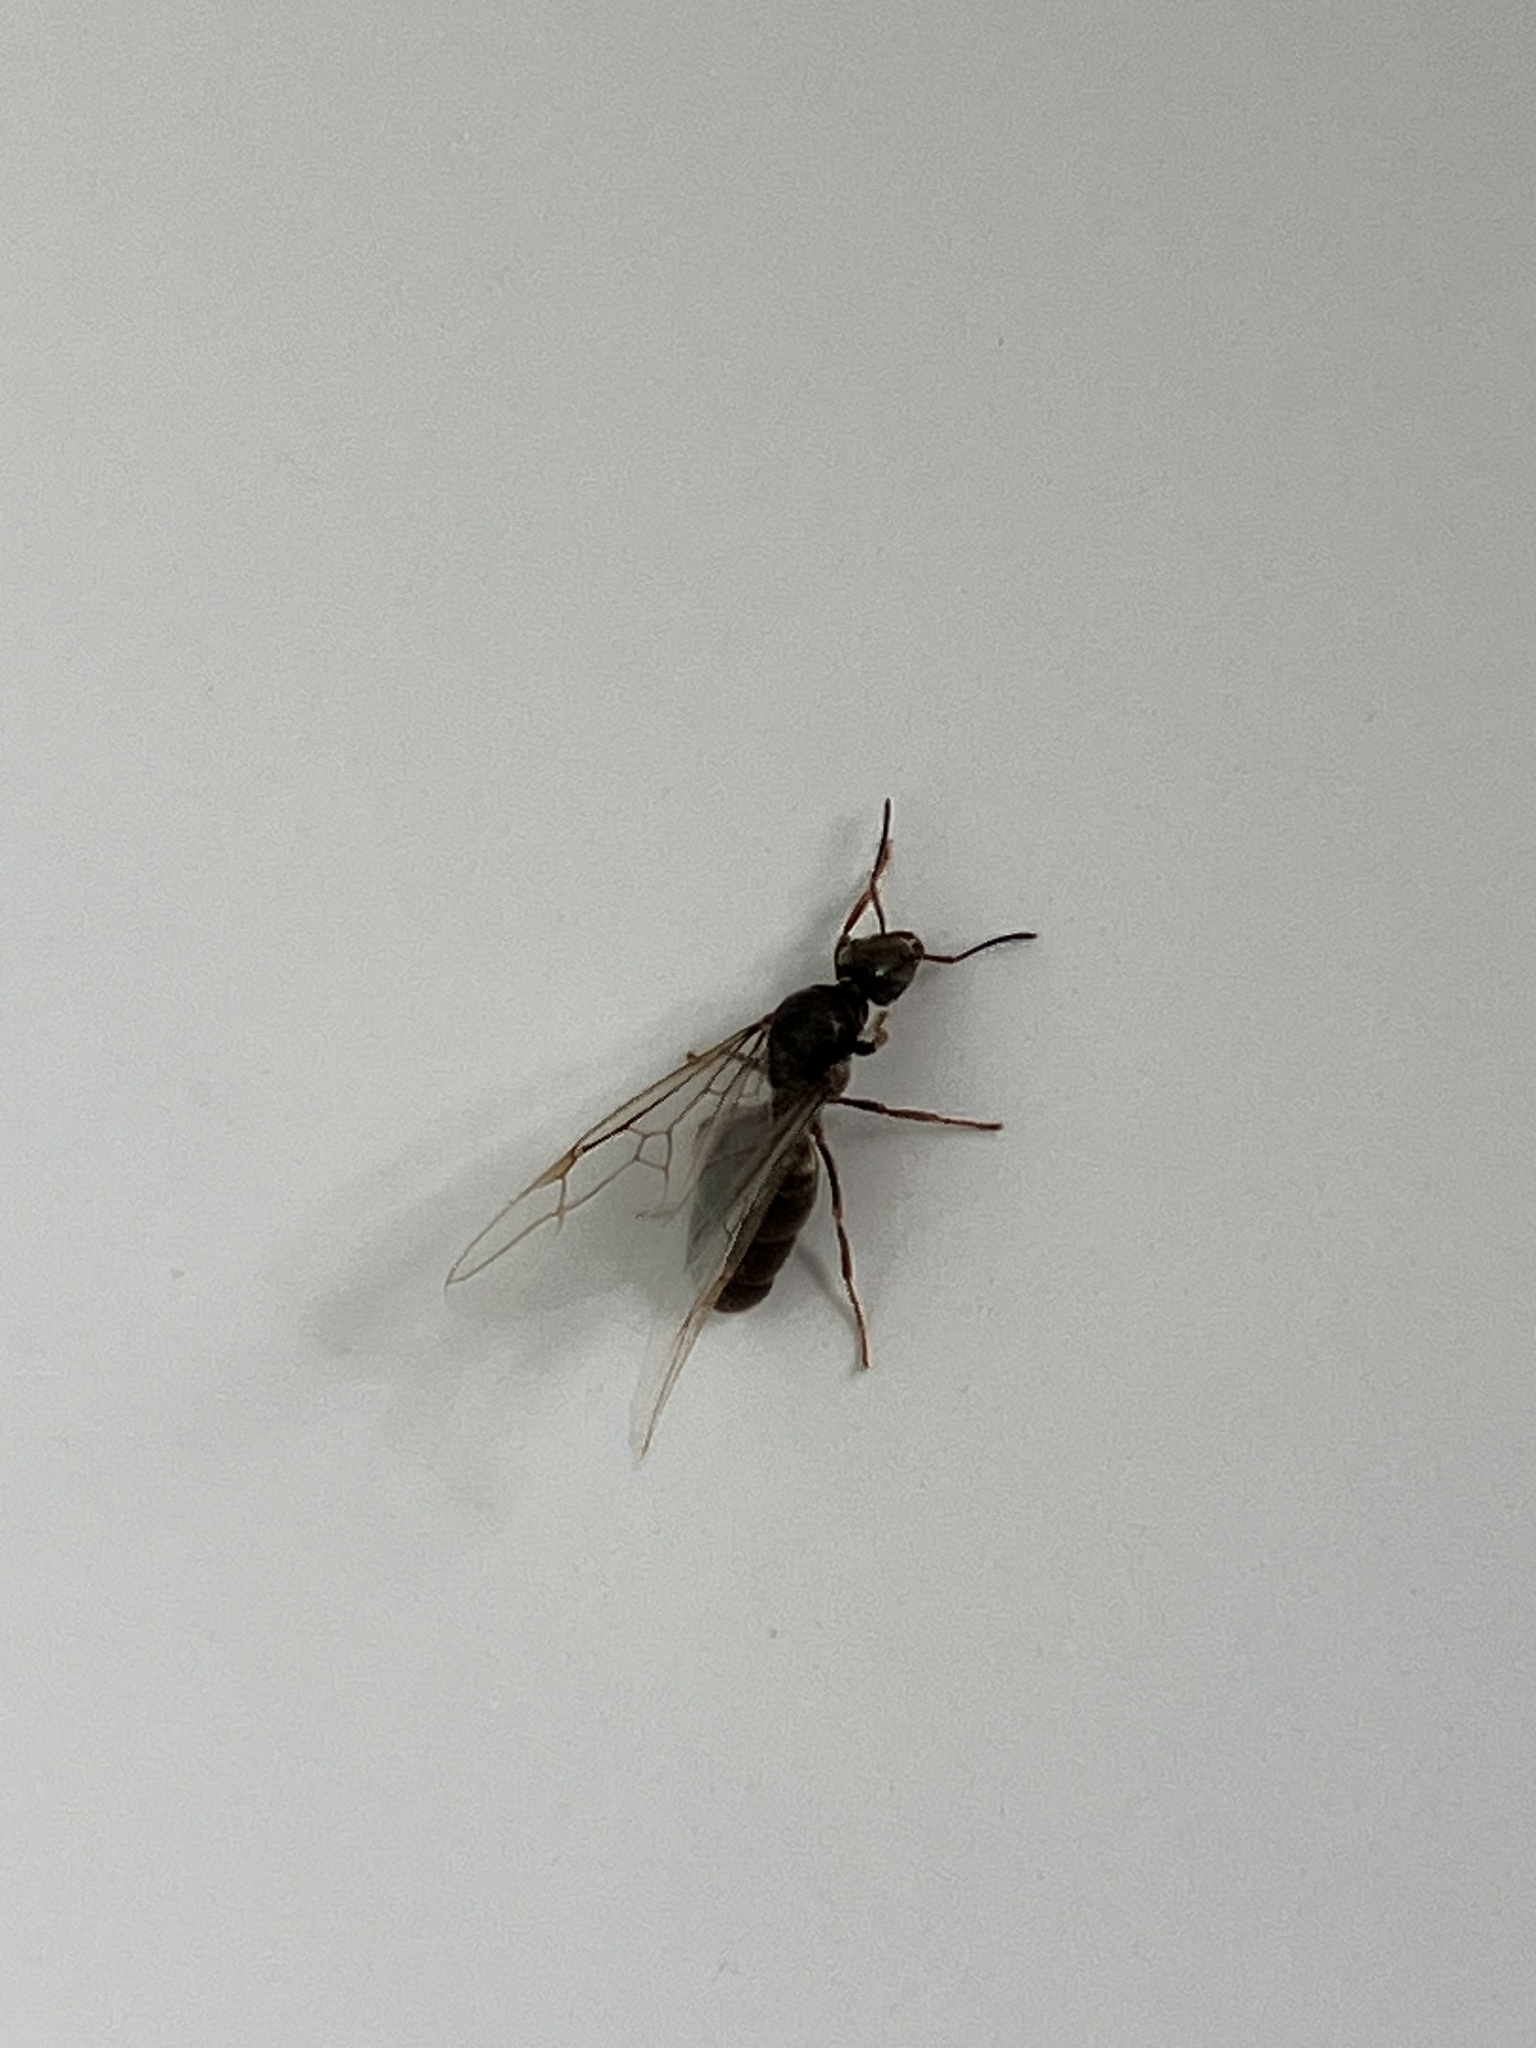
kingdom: Animalia
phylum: Arthropoda
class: Insecta
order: Hymenoptera
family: Formicidae
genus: Lasius
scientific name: Lasius
